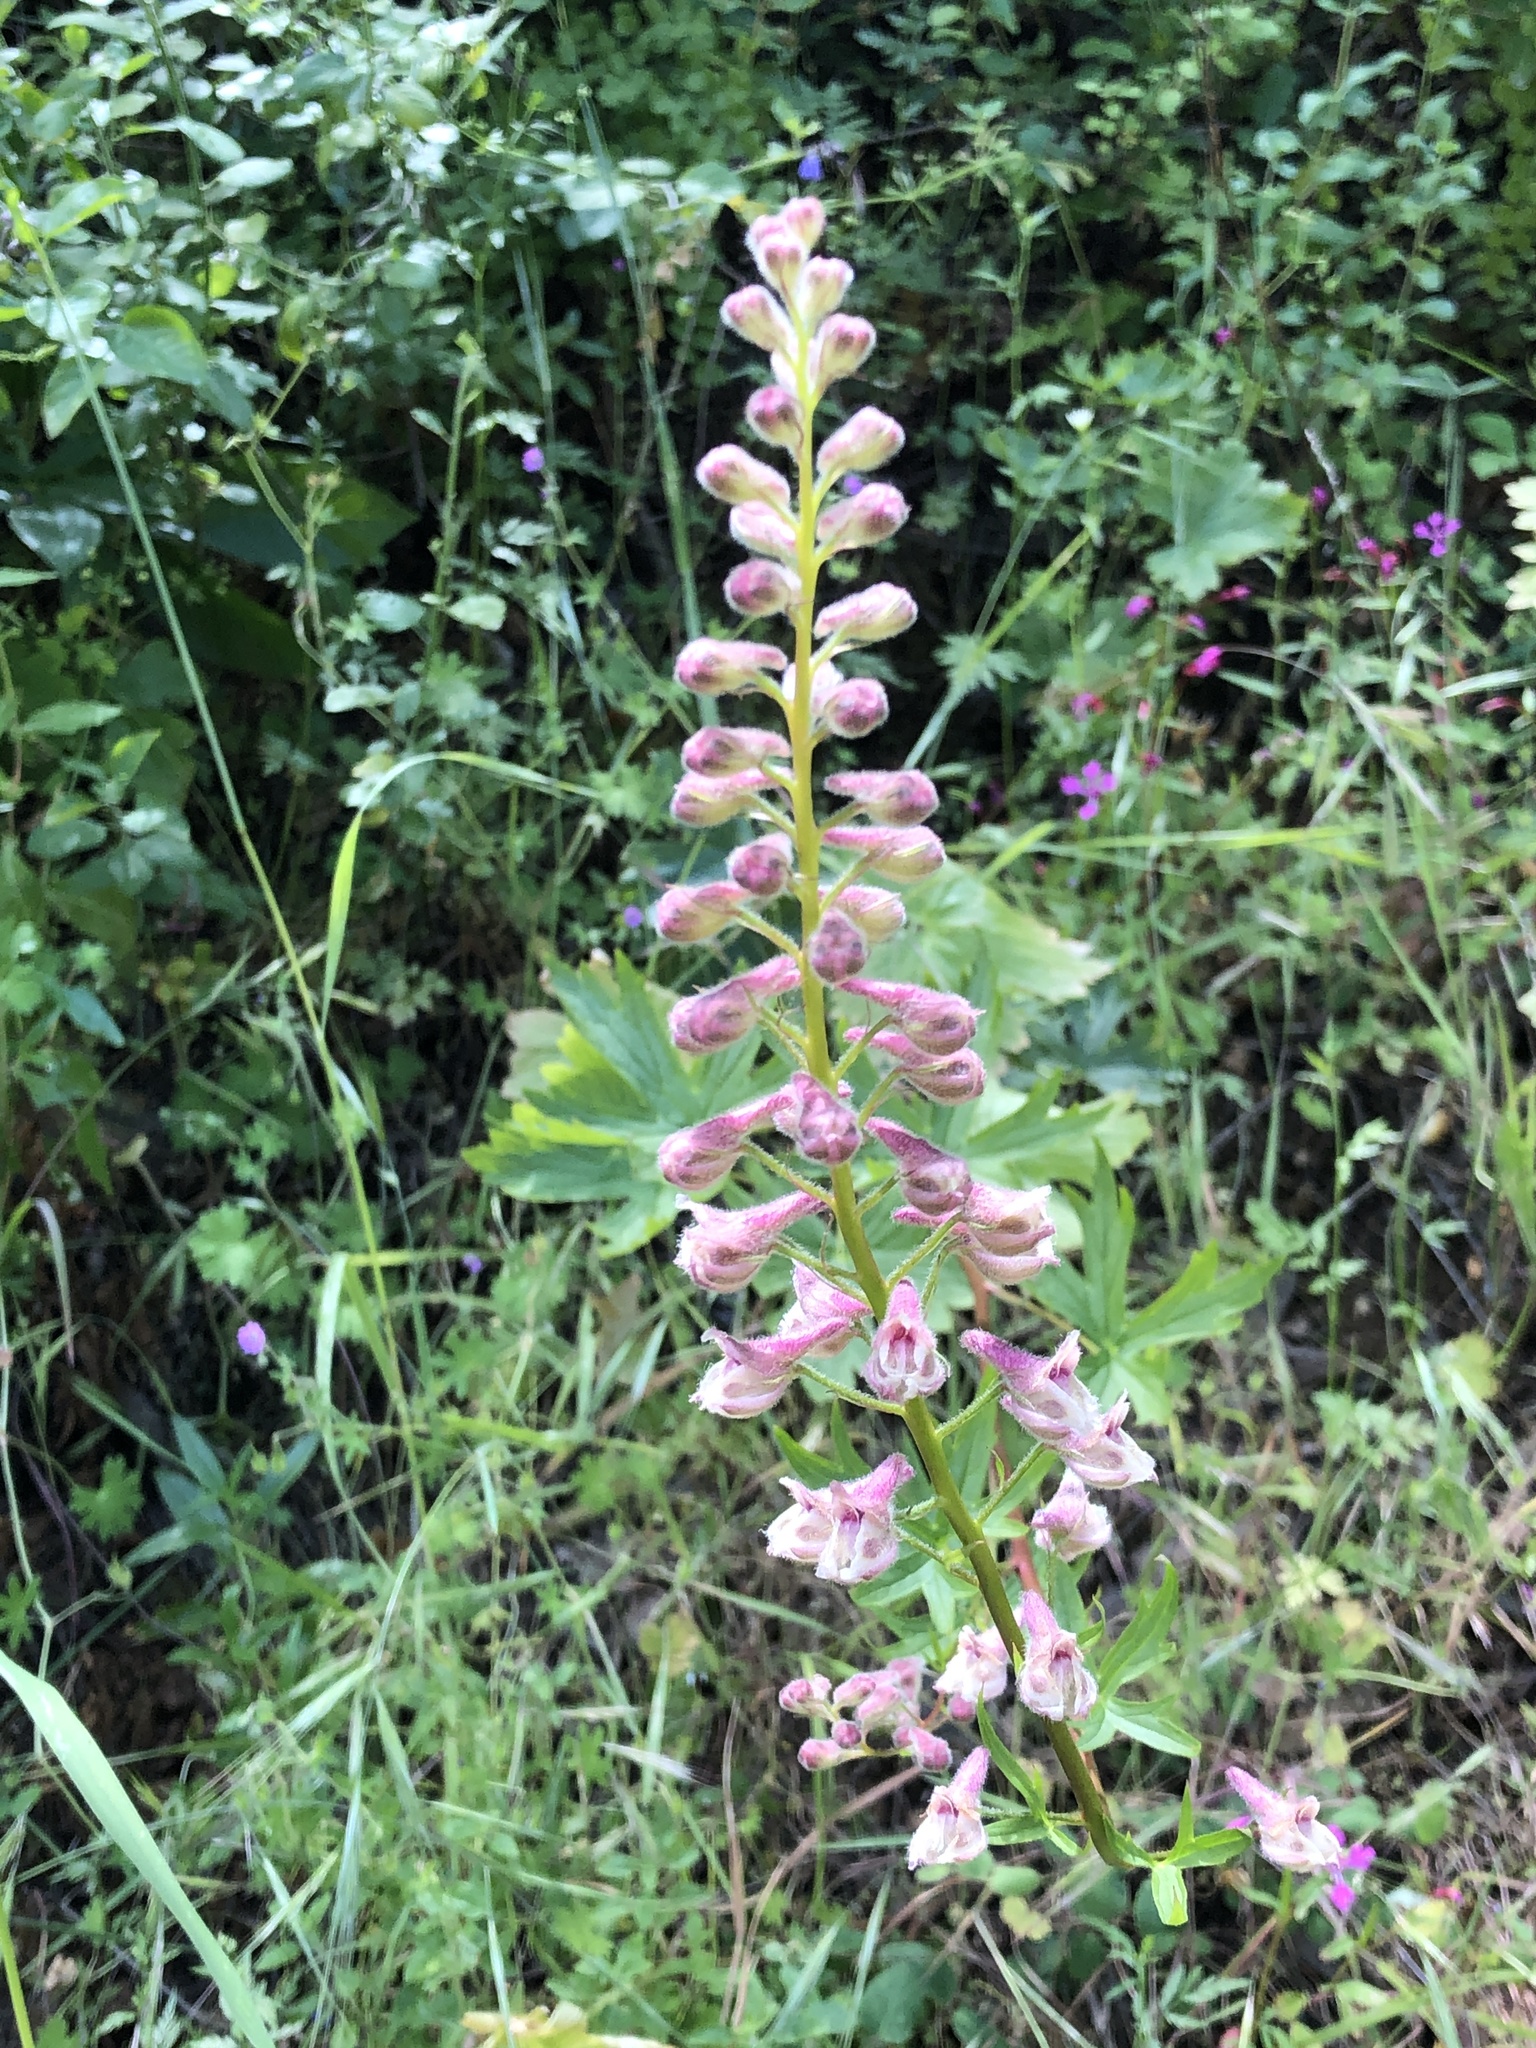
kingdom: Plantae
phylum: Tracheophyta
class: Magnoliopsida
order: Ranunculales
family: Ranunculaceae
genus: Delphinium
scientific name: Delphinium californicum
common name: California larkspur
